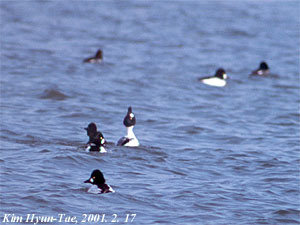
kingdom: Animalia
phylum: Chordata
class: Aves
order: Anseriformes
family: Anatidae
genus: Bucephala
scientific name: Bucephala clangula
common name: Common goldeneye
